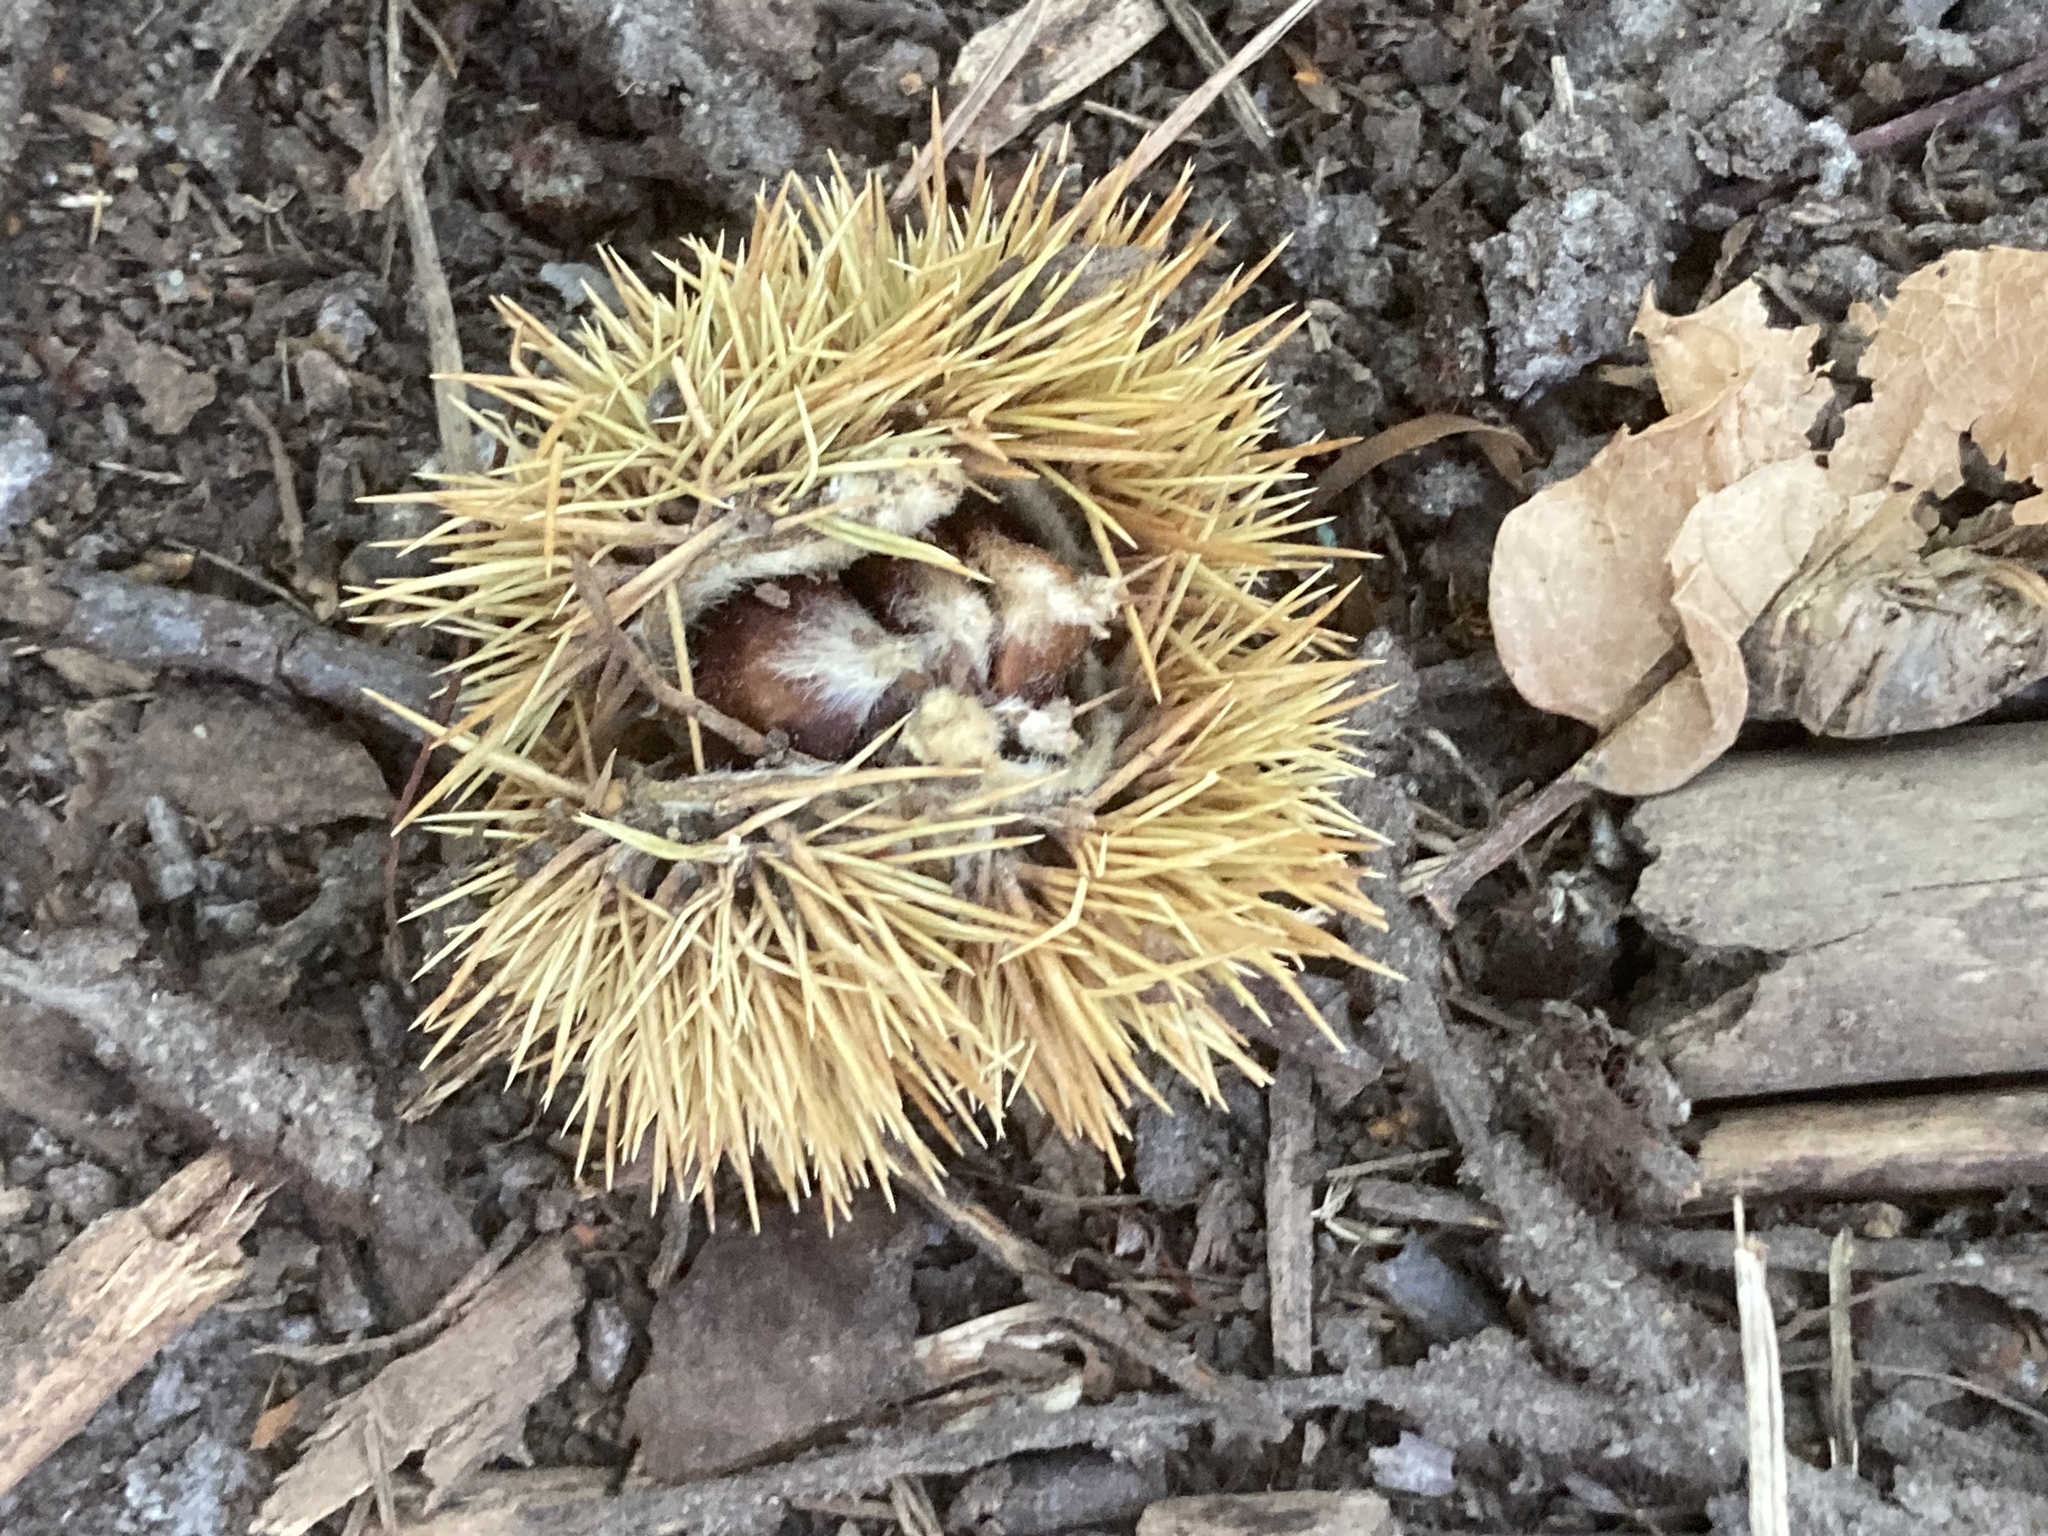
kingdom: Plantae
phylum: Tracheophyta
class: Magnoliopsida
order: Fagales
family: Fagaceae
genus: Castanea
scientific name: Castanea sativa
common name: Sweet chestnut
